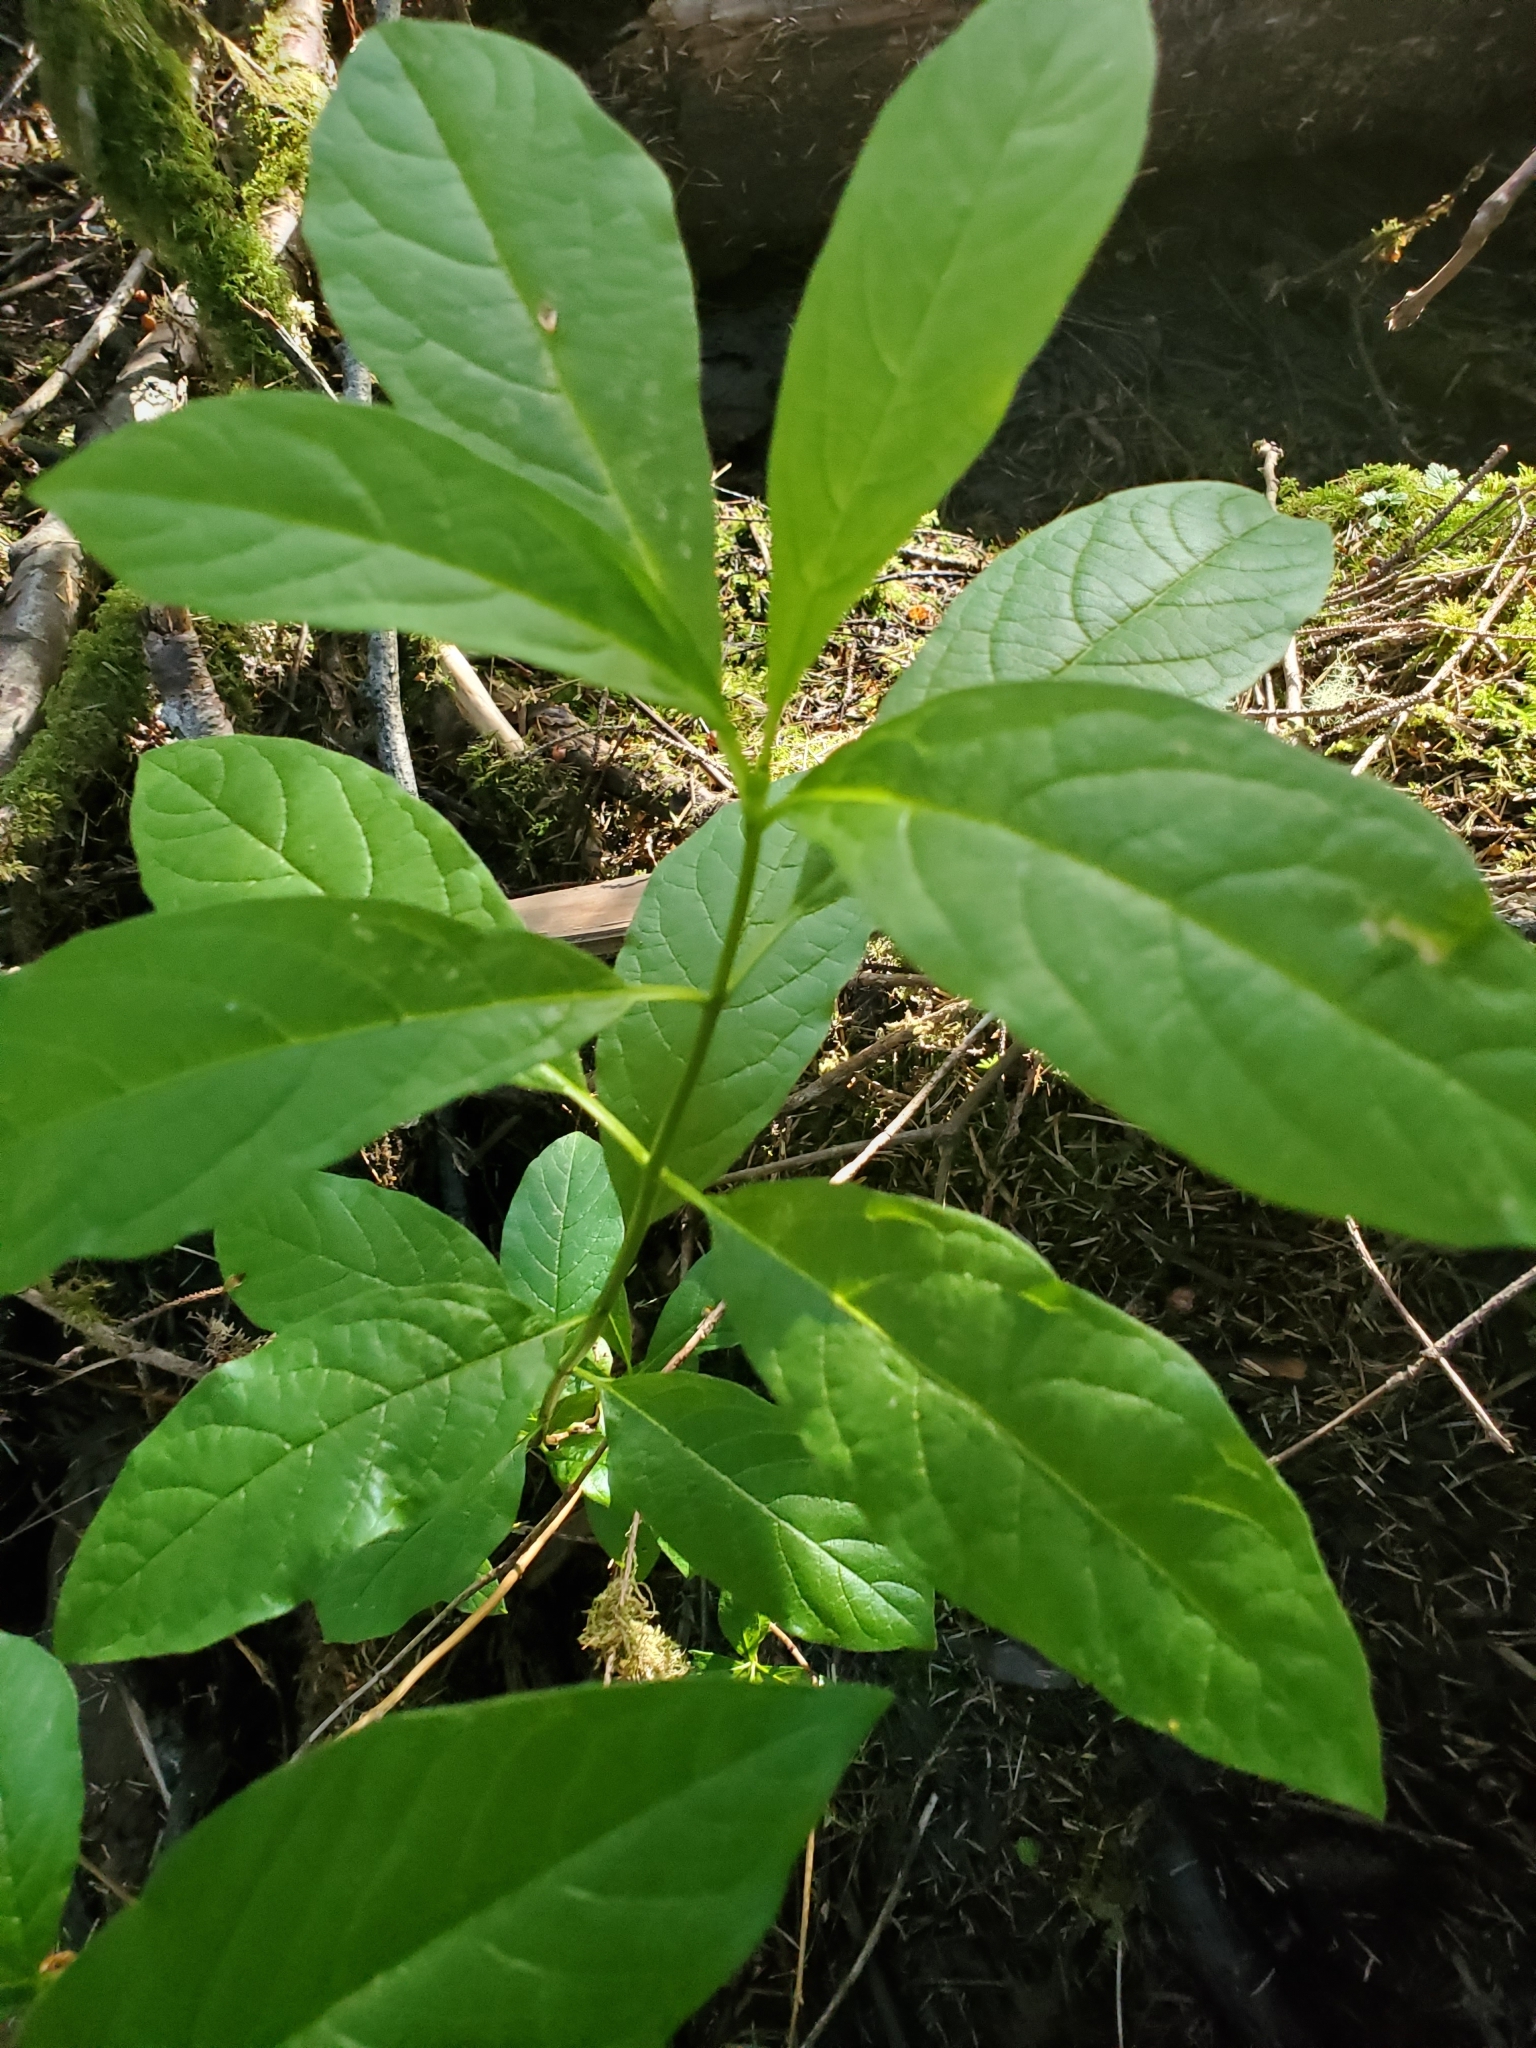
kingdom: Plantae
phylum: Tracheophyta
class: Magnoliopsida
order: Dipsacales
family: Caprifoliaceae
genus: Lonicera
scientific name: Lonicera involucrata
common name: Californian honeysuckle
